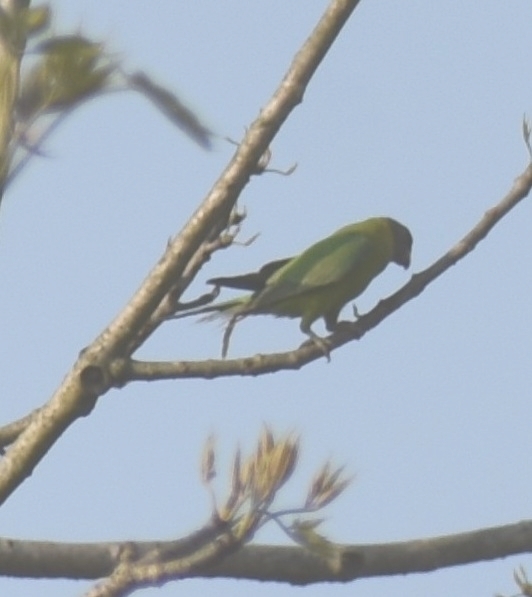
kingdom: Animalia
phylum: Chordata
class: Aves
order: Psittaciformes
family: Psittacidae
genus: Psittacula
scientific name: Psittacula cyanocephala
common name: Plum-headed parakeet
